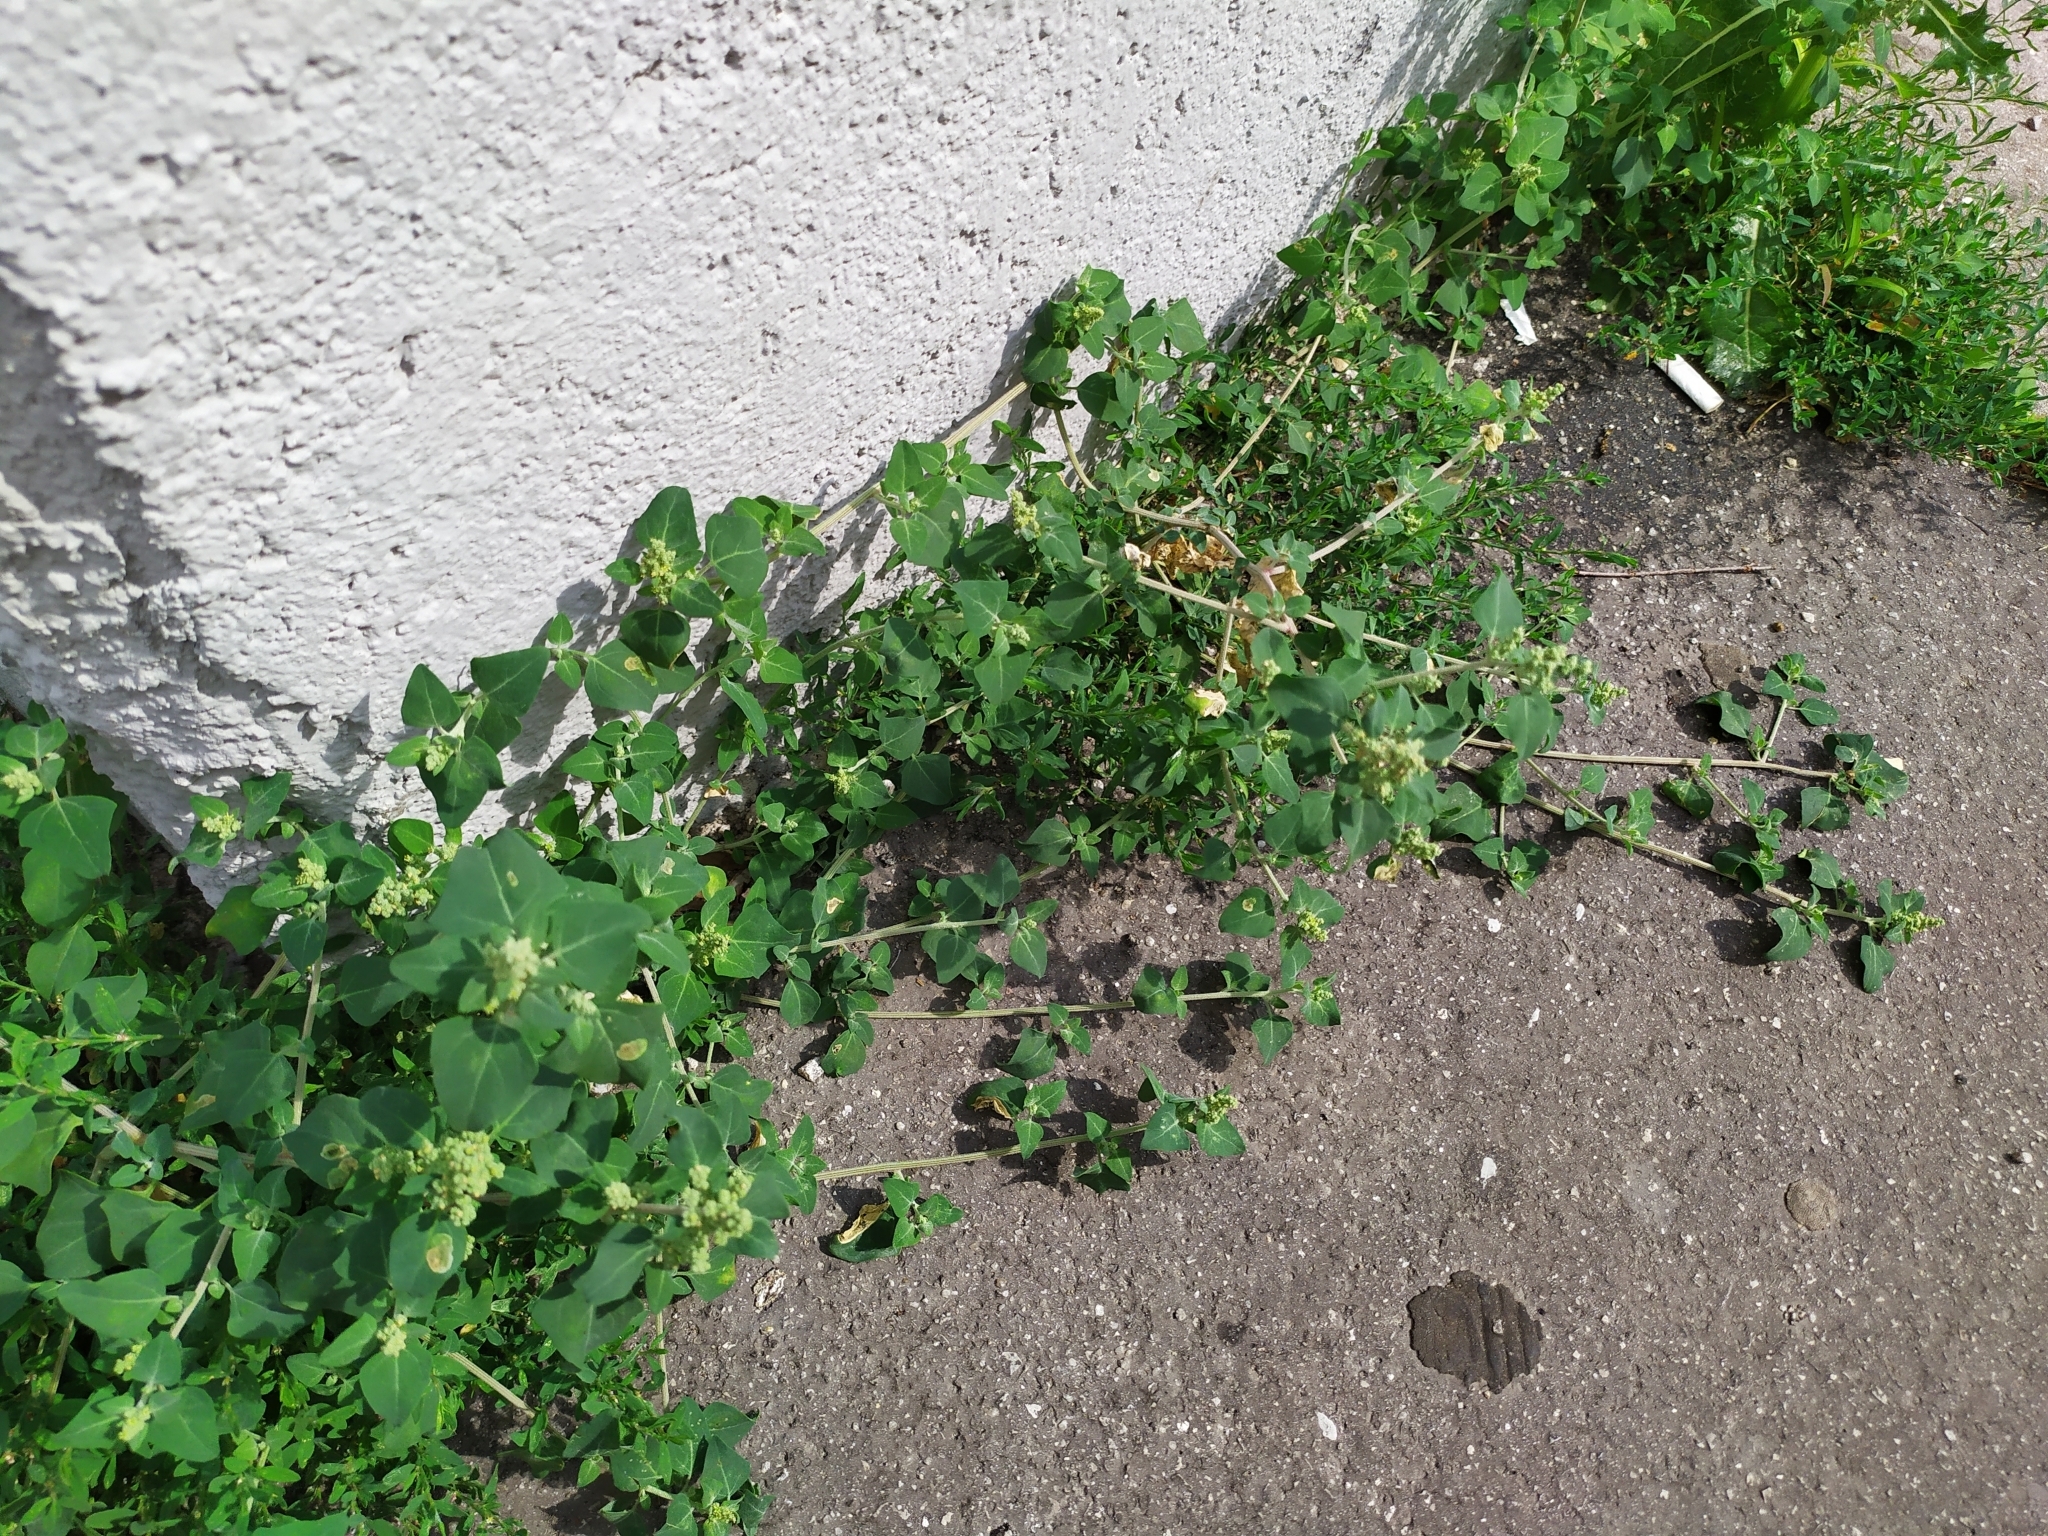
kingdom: Plantae
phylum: Tracheophyta
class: Magnoliopsida
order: Caryophyllales
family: Amaranthaceae
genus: Chenopodium
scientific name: Chenopodium vulvaria
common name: Stinking goosefoot
